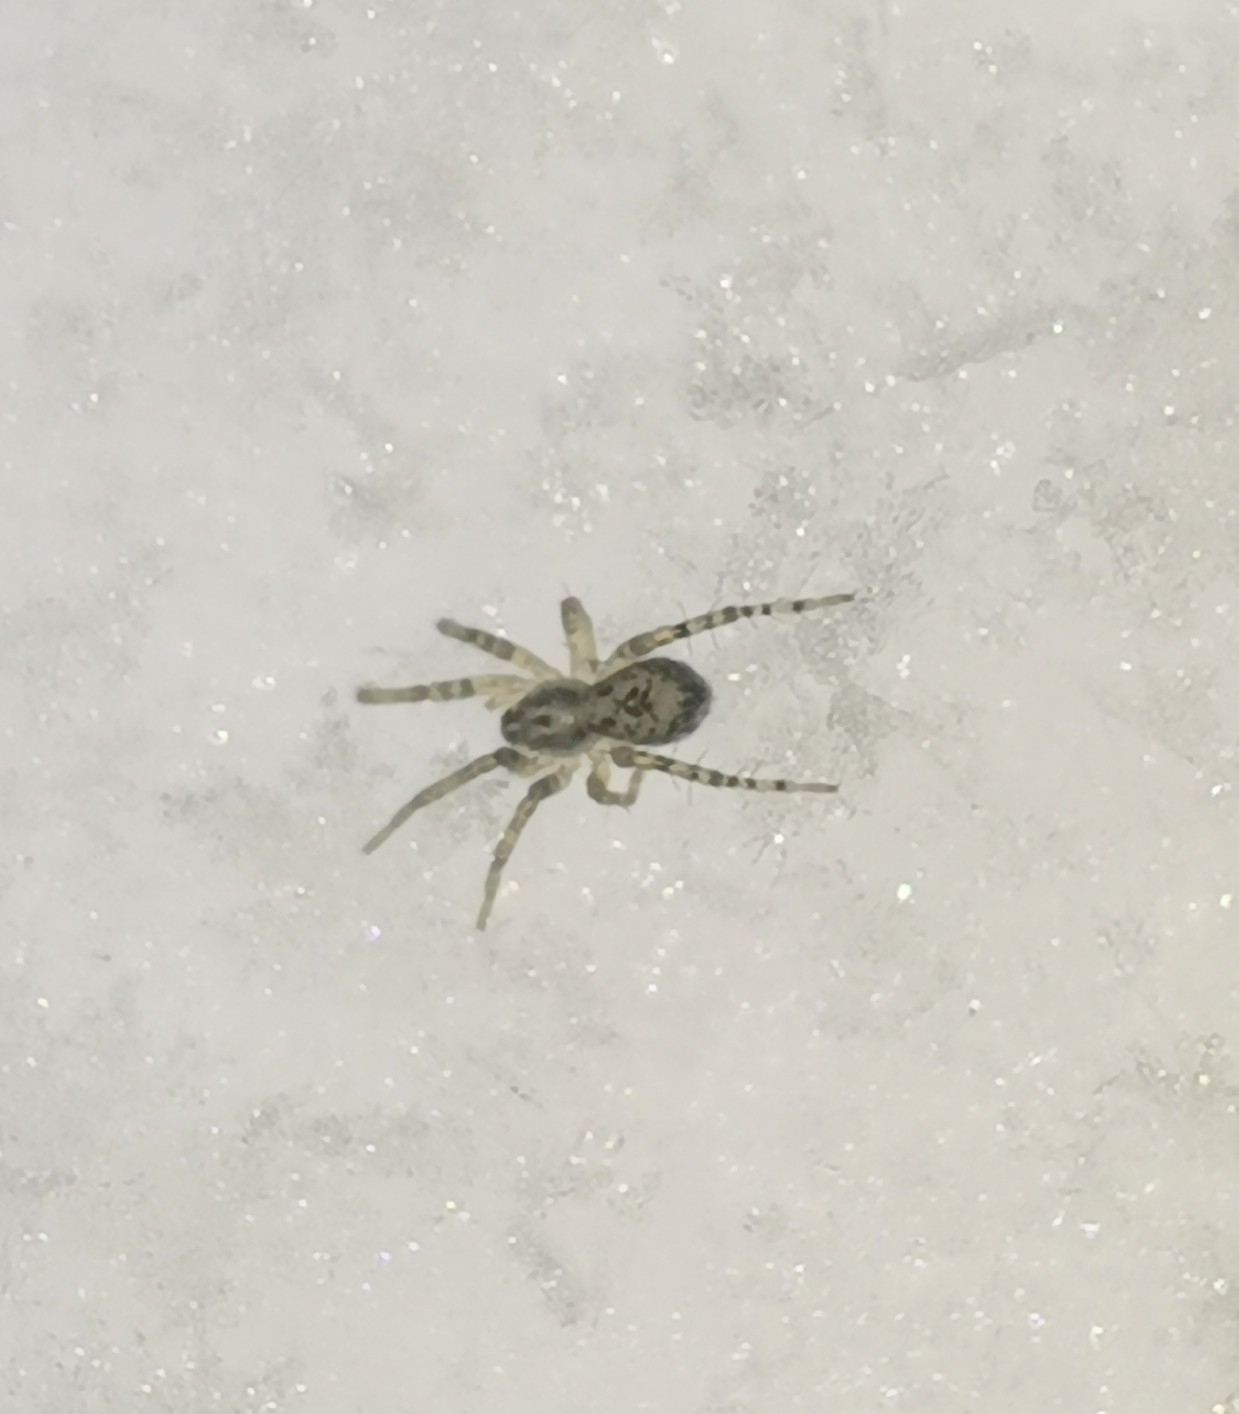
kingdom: Animalia
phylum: Arthropoda
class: Arachnida
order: Araneae
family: Anyphaenidae
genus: Anyphaena
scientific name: Anyphaena accentuata
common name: Buzzing spider
